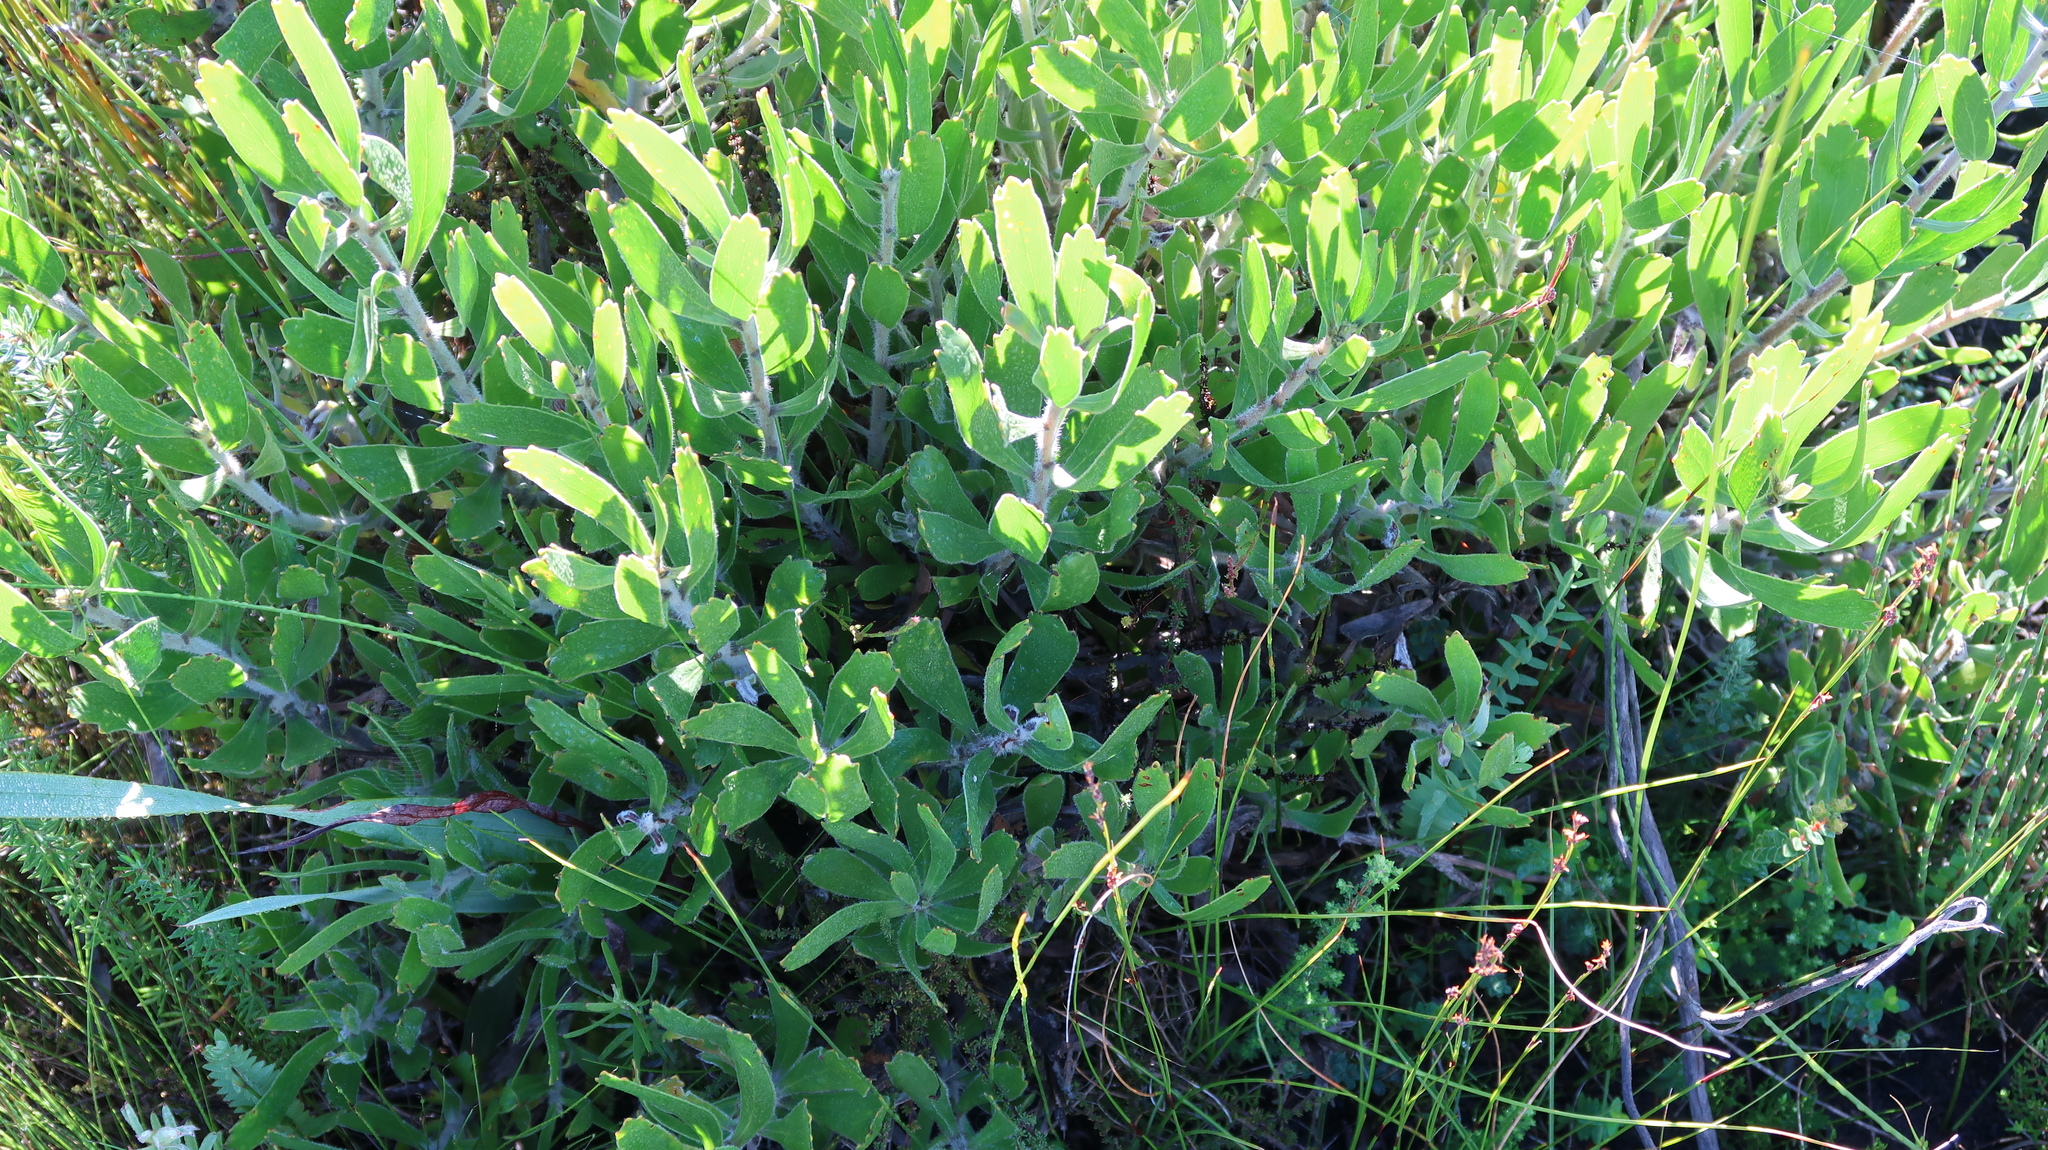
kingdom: Plantae
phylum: Tracheophyta
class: Magnoliopsida
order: Proteales
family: Proteaceae
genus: Leucospermum
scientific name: Leucospermum cuneiforme
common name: Common pincushion
